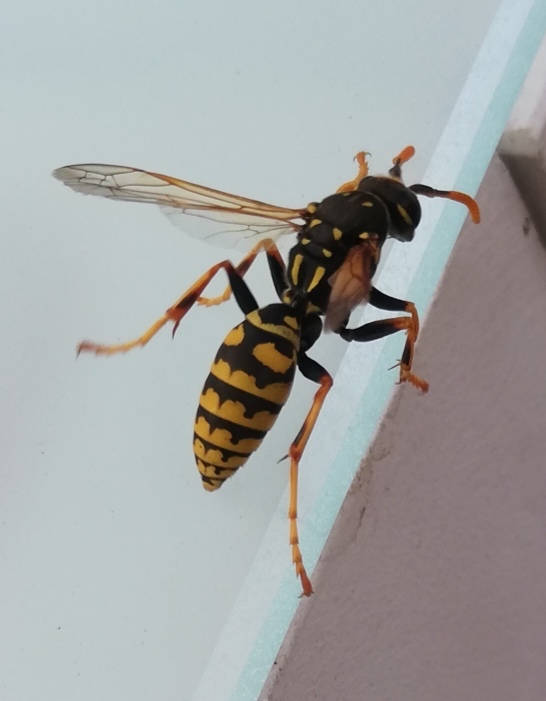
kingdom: Animalia
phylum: Arthropoda
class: Insecta
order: Hymenoptera
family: Eumenidae
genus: Polistes
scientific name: Polistes dominula
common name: Paper wasp
